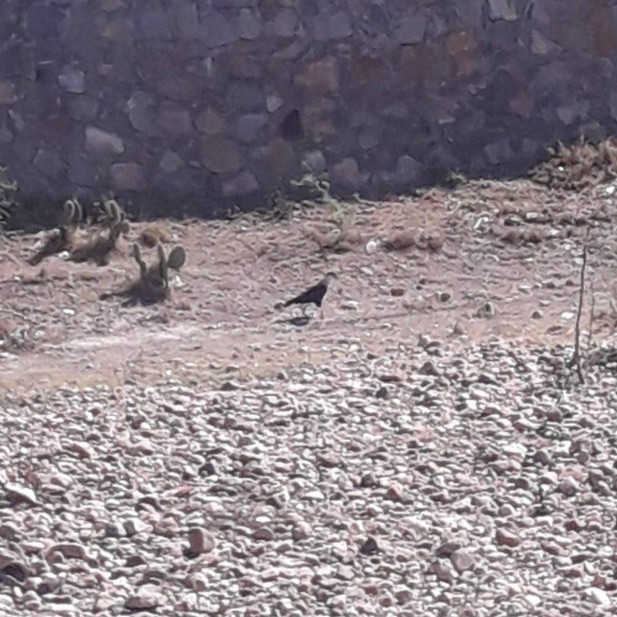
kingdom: Animalia
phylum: Chordata
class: Aves
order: Falconiformes
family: Falconidae
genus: Caracara
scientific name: Caracara plancus
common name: Southern caracara
